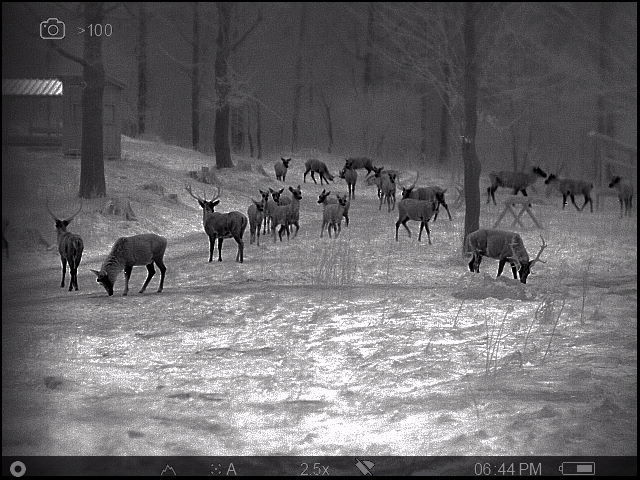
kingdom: Animalia
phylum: Chordata
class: Mammalia
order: Artiodactyla
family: Cervidae
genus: Cervus
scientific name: Cervus elaphus
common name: Red deer
